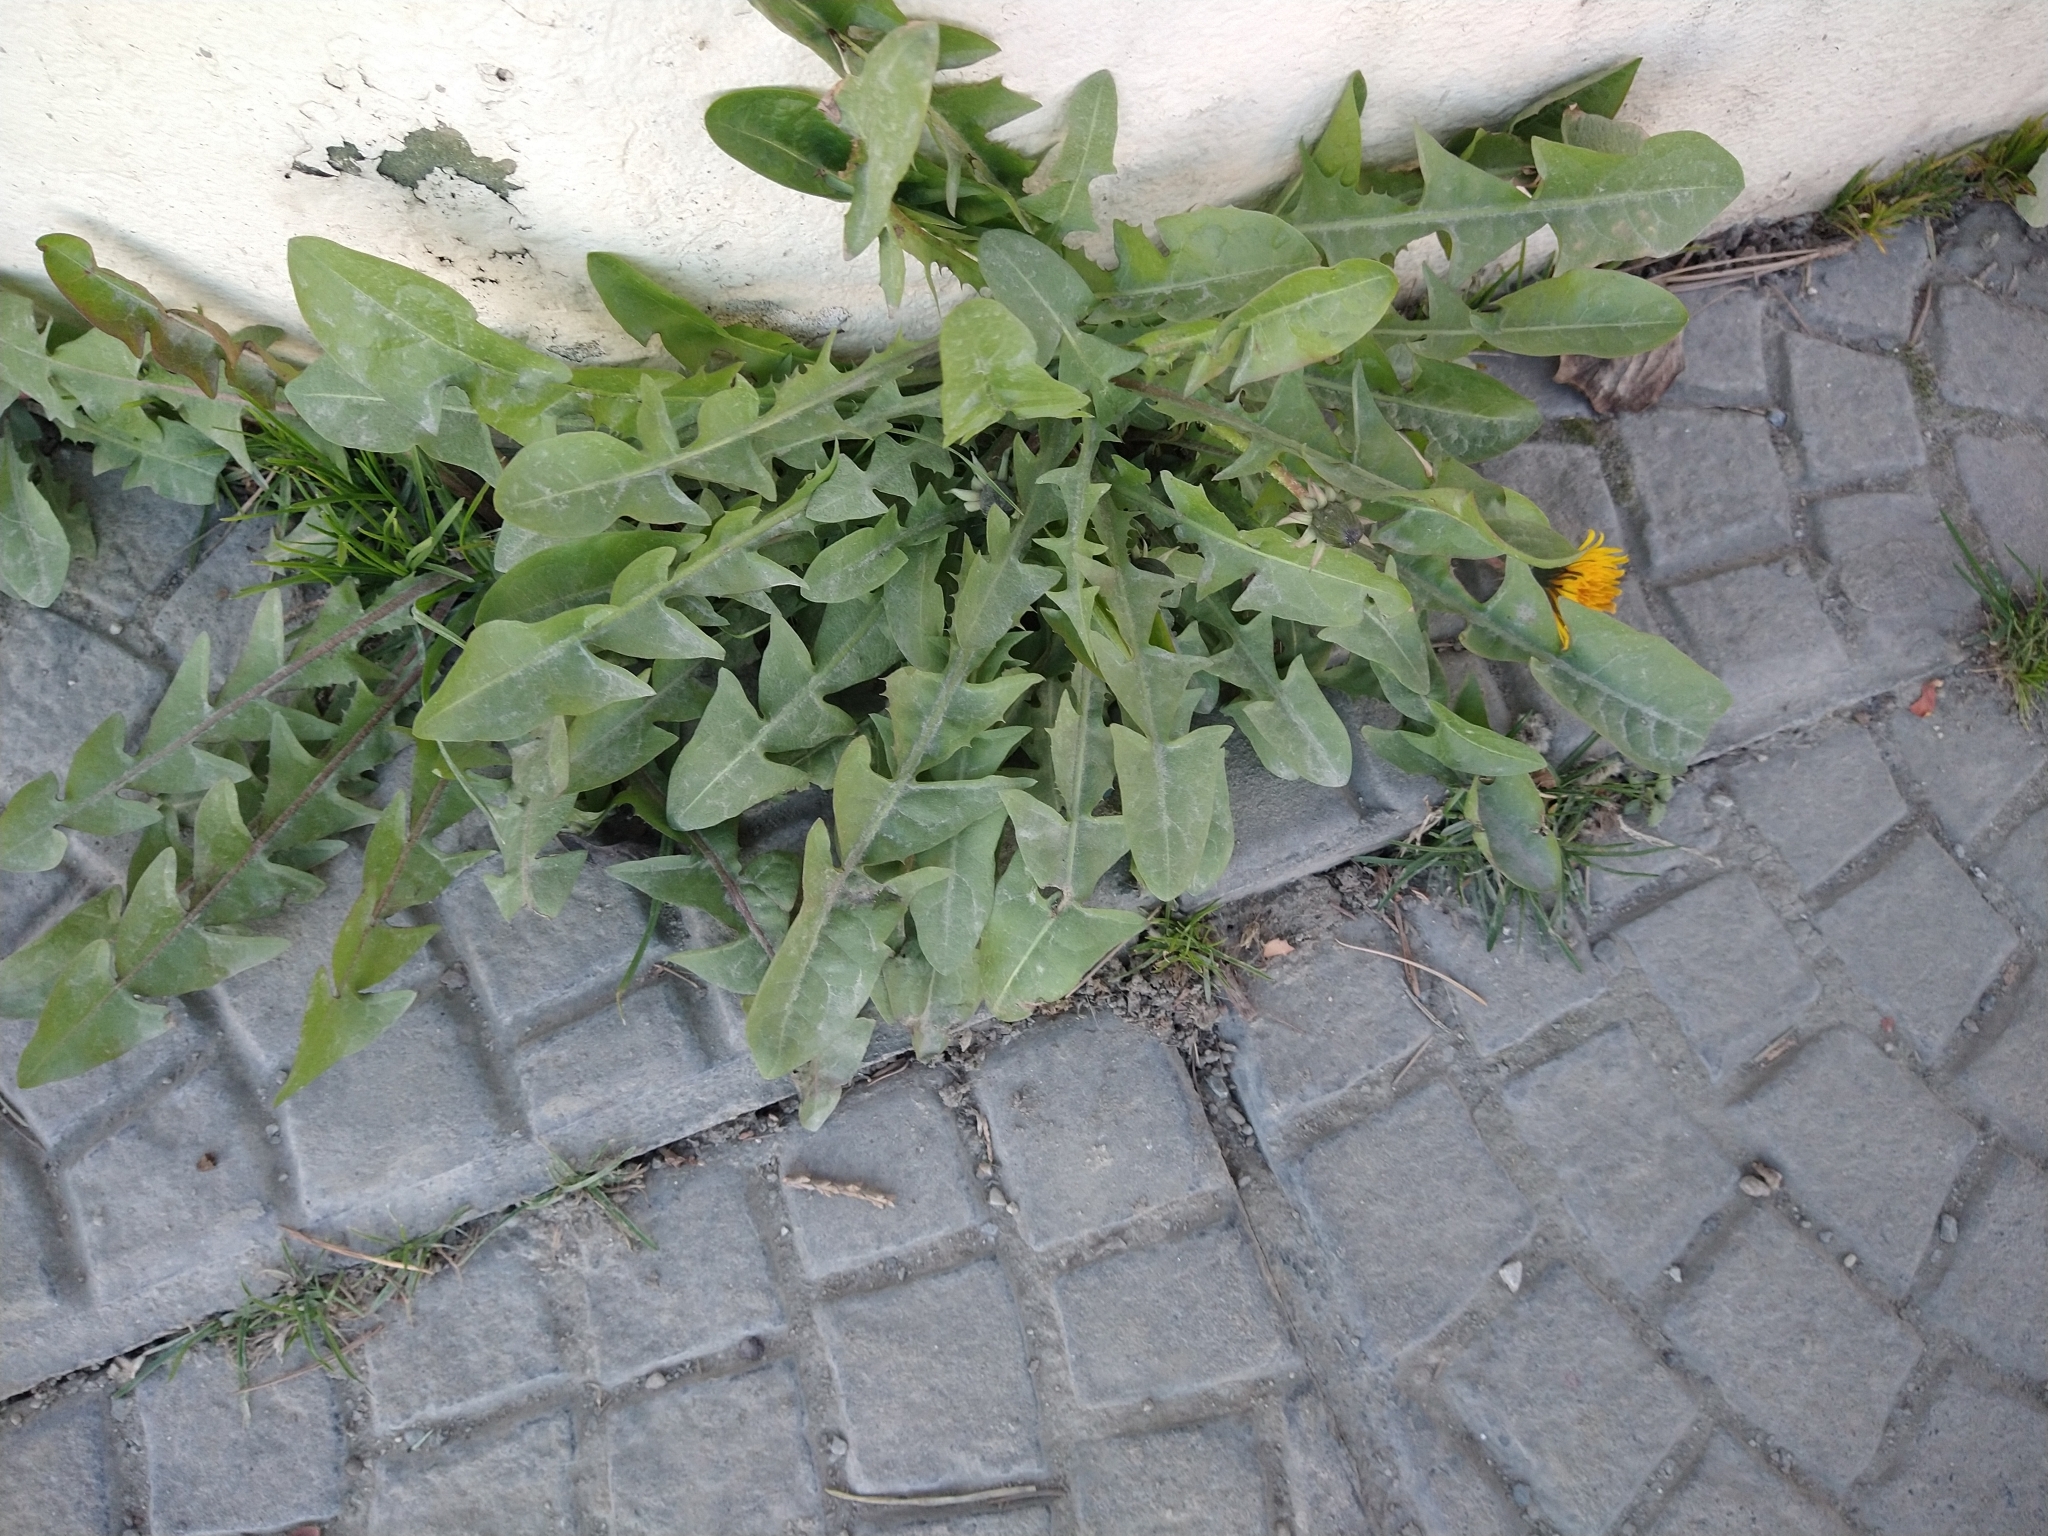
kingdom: Plantae
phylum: Tracheophyta
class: Magnoliopsida
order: Asterales
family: Asteraceae
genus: Taraxacum
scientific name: Taraxacum officinale
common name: Common dandelion
